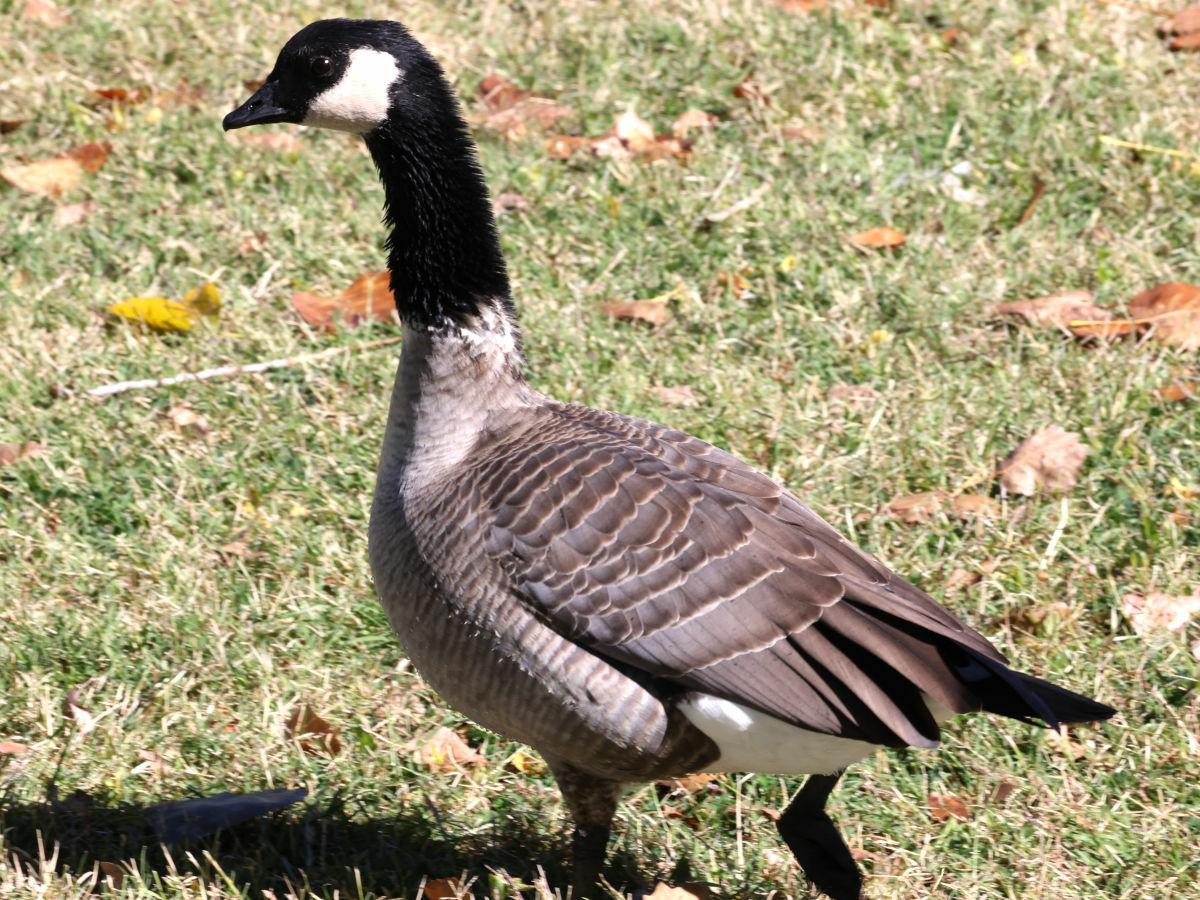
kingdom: Animalia
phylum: Chordata
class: Aves
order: Anseriformes
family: Anatidae
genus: Branta
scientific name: Branta hutchinsii
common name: Cackling goose
